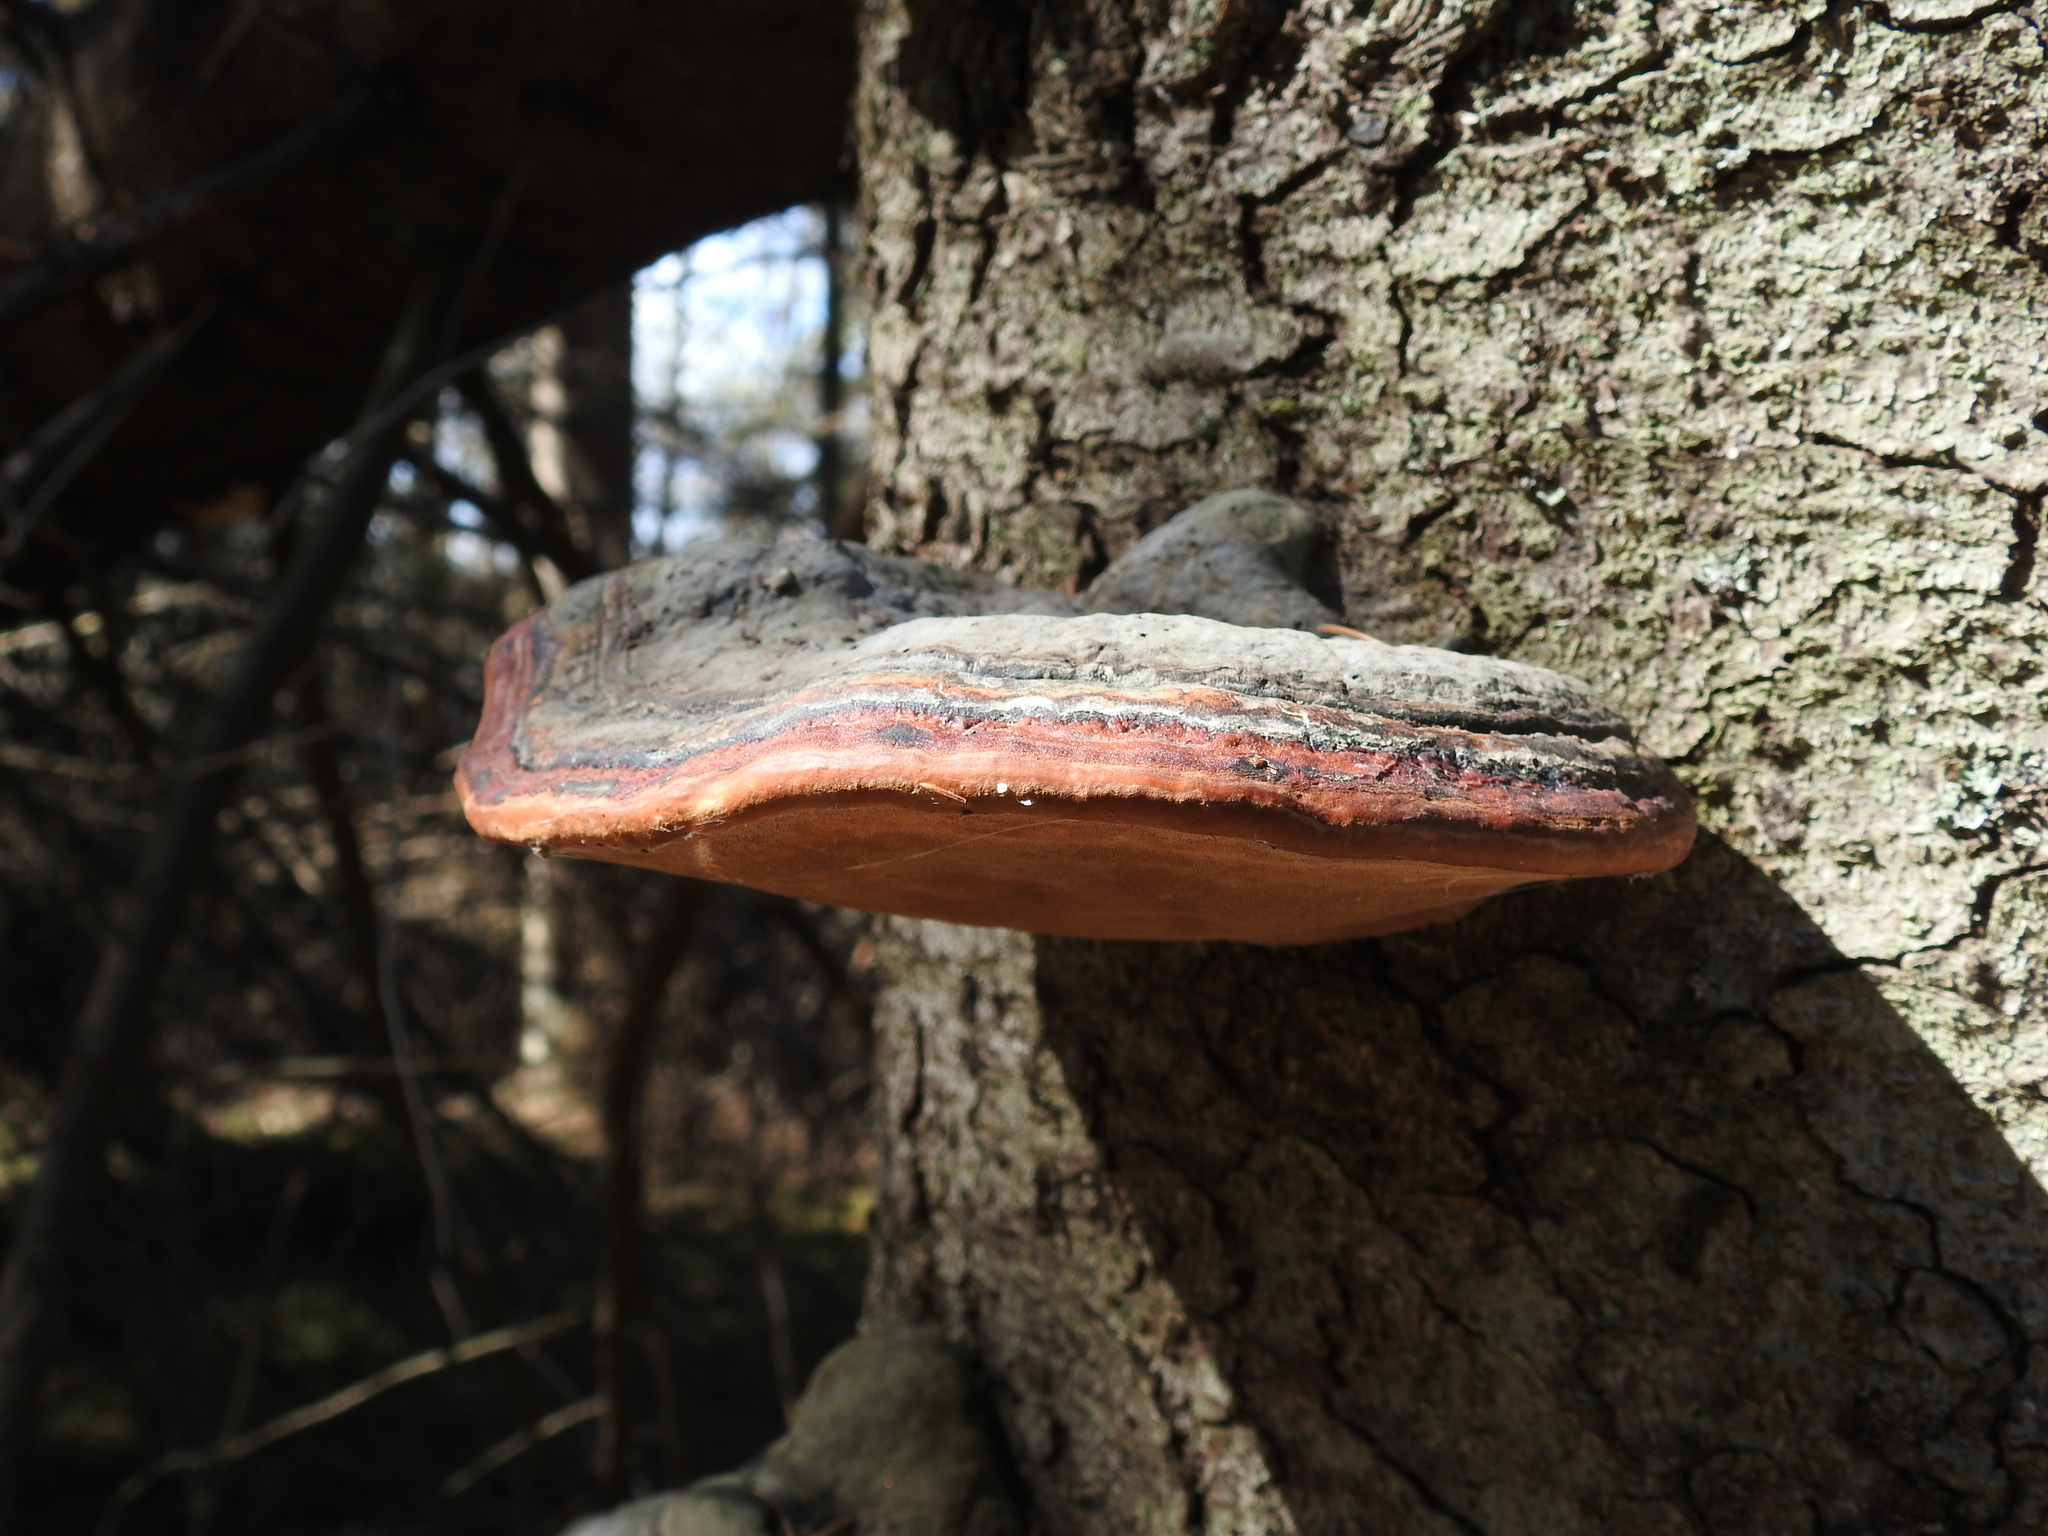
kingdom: Fungi
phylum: Basidiomycota
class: Agaricomycetes
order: Polyporales
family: Fomitopsidaceae
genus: Fomitopsis
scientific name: Fomitopsis pinicola
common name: Red-belted bracket
